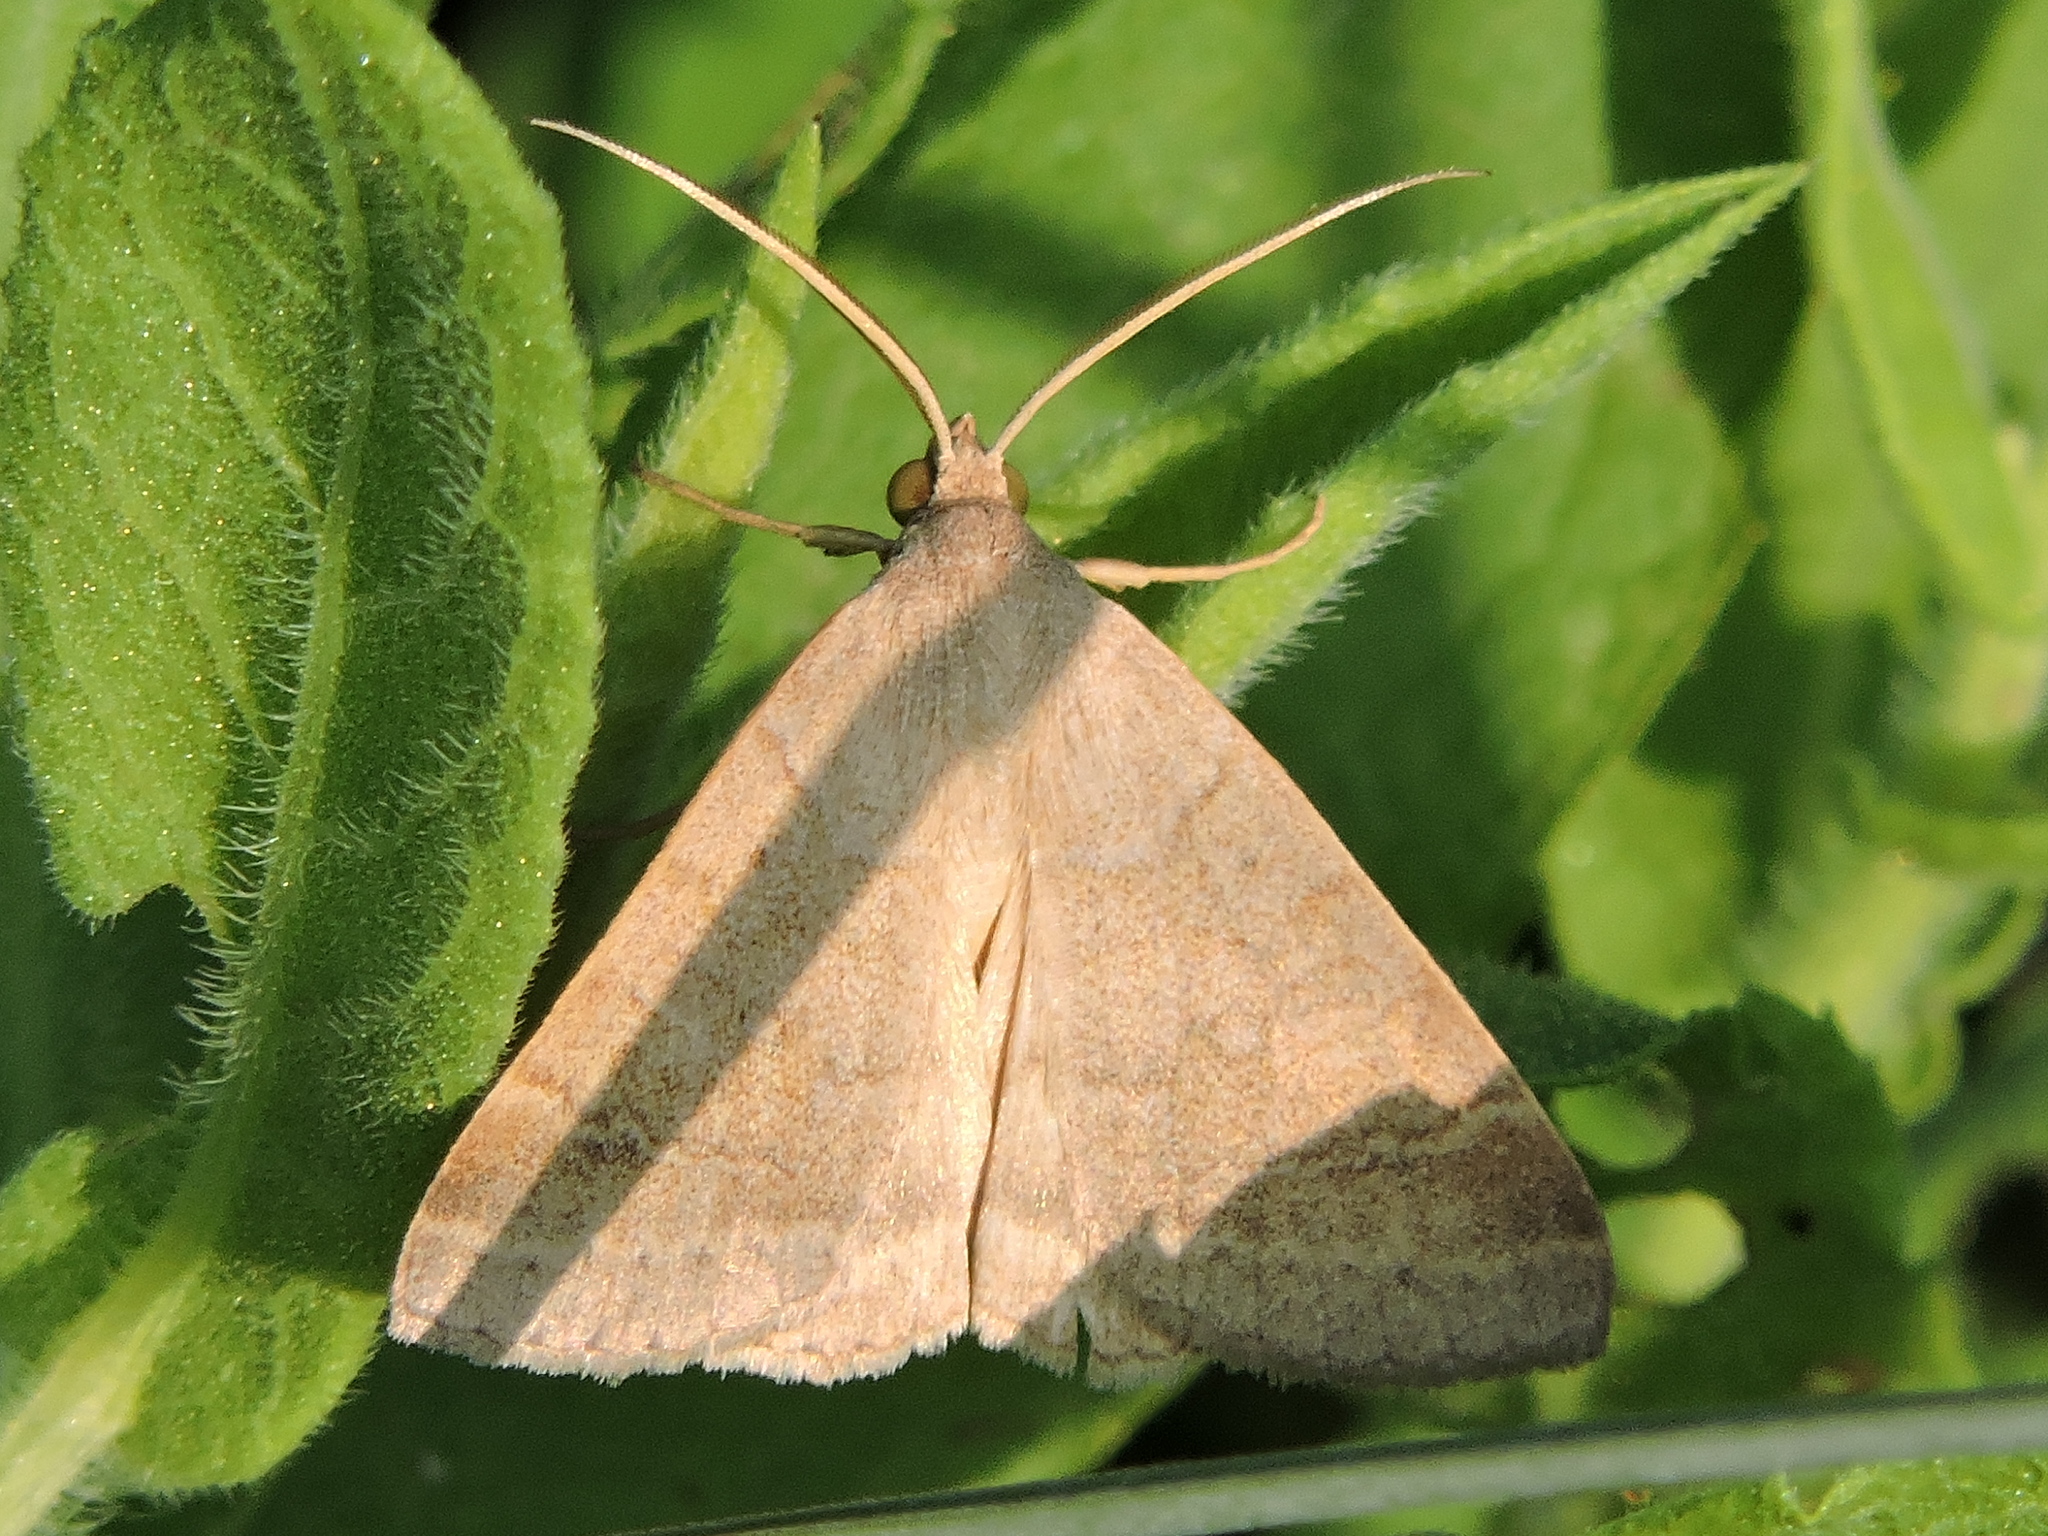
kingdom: Animalia
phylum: Arthropoda
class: Insecta
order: Lepidoptera
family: Erebidae
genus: Caenurgia
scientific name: Caenurgia chloropha
